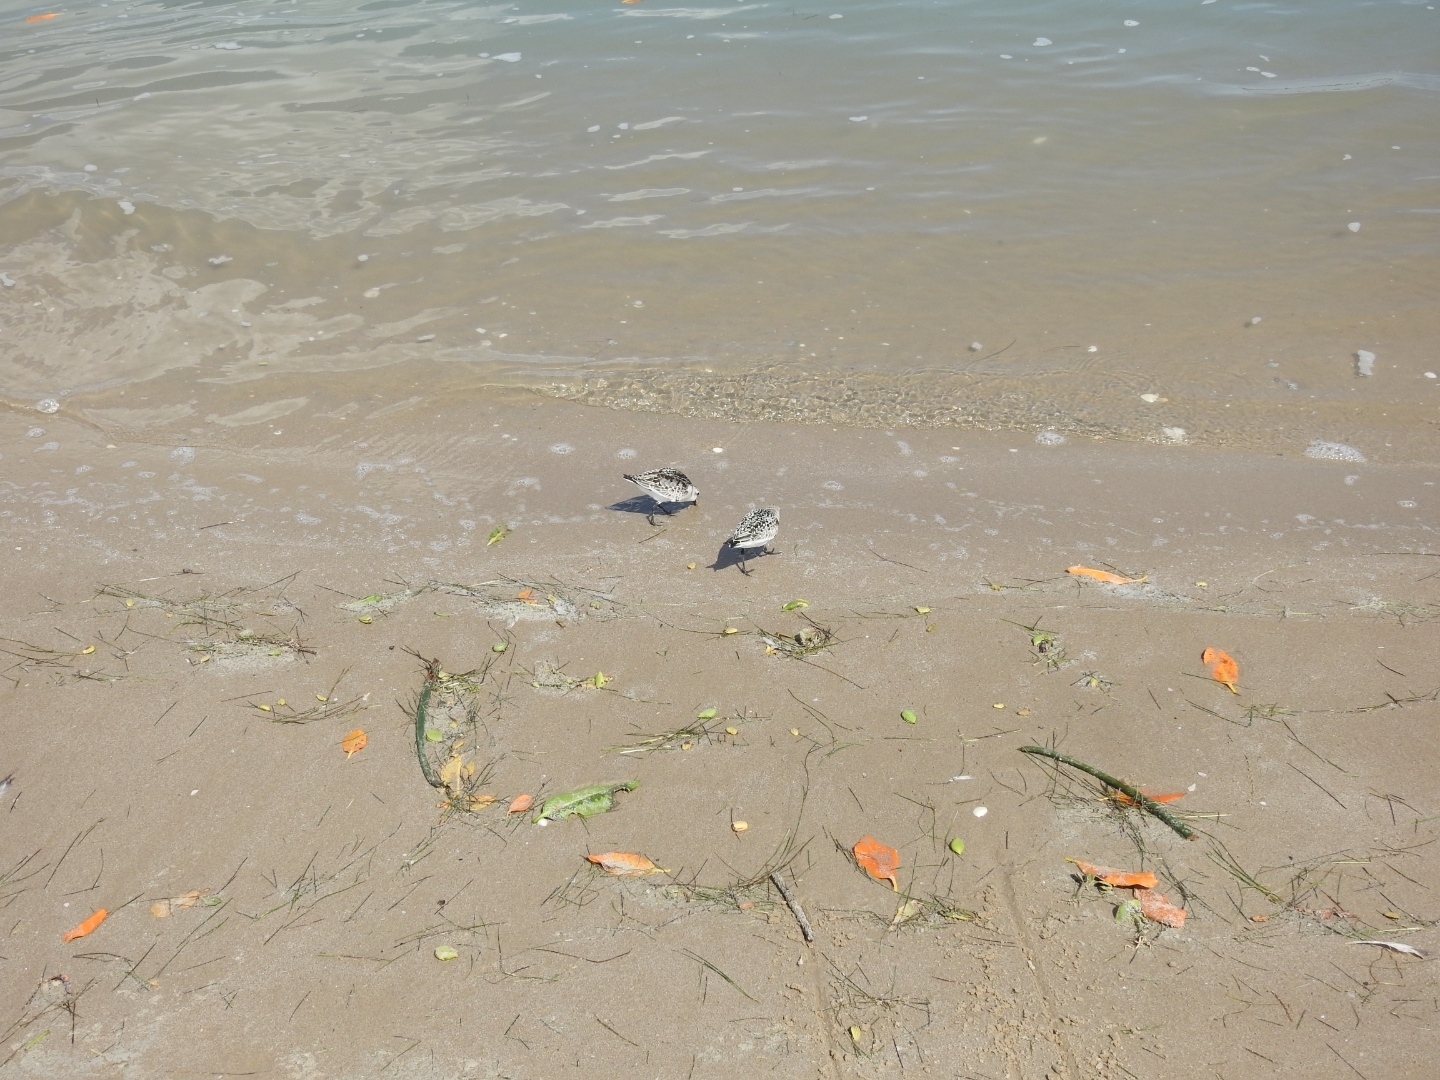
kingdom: Animalia
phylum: Chordata
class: Aves
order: Charadriiformes
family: Scolopacidae
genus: Calidris
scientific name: Calidris alba
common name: Sanderling
